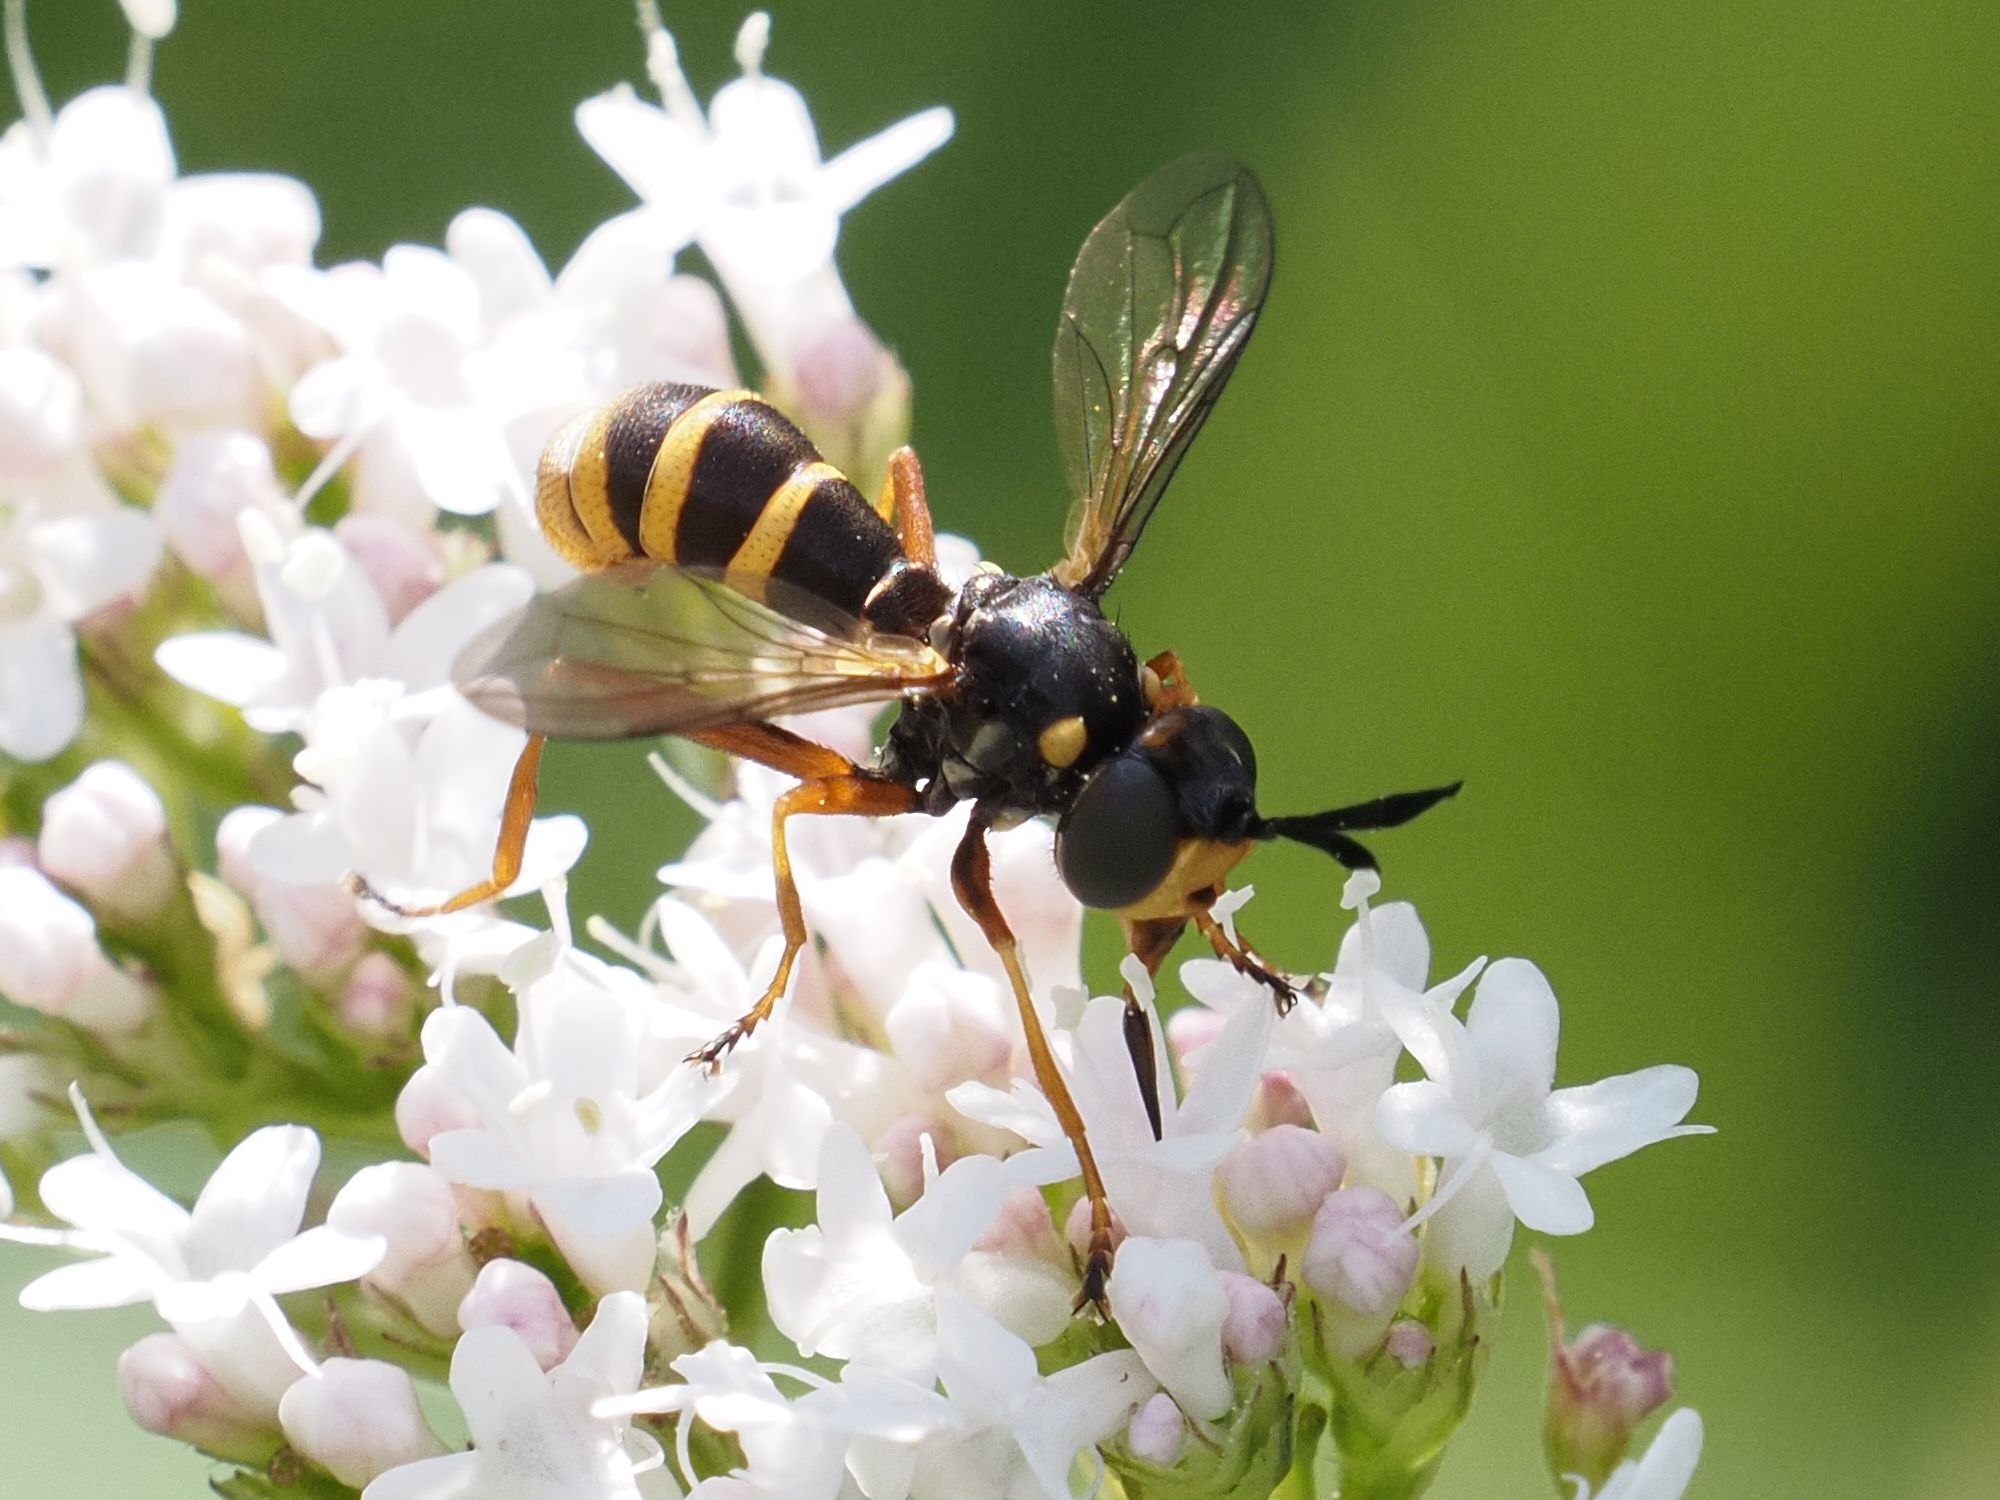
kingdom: Animalia
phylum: Arthropoda
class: Insecta
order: Diptera
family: Conopidae
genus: Conops
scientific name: Conops quadrifasciatus
